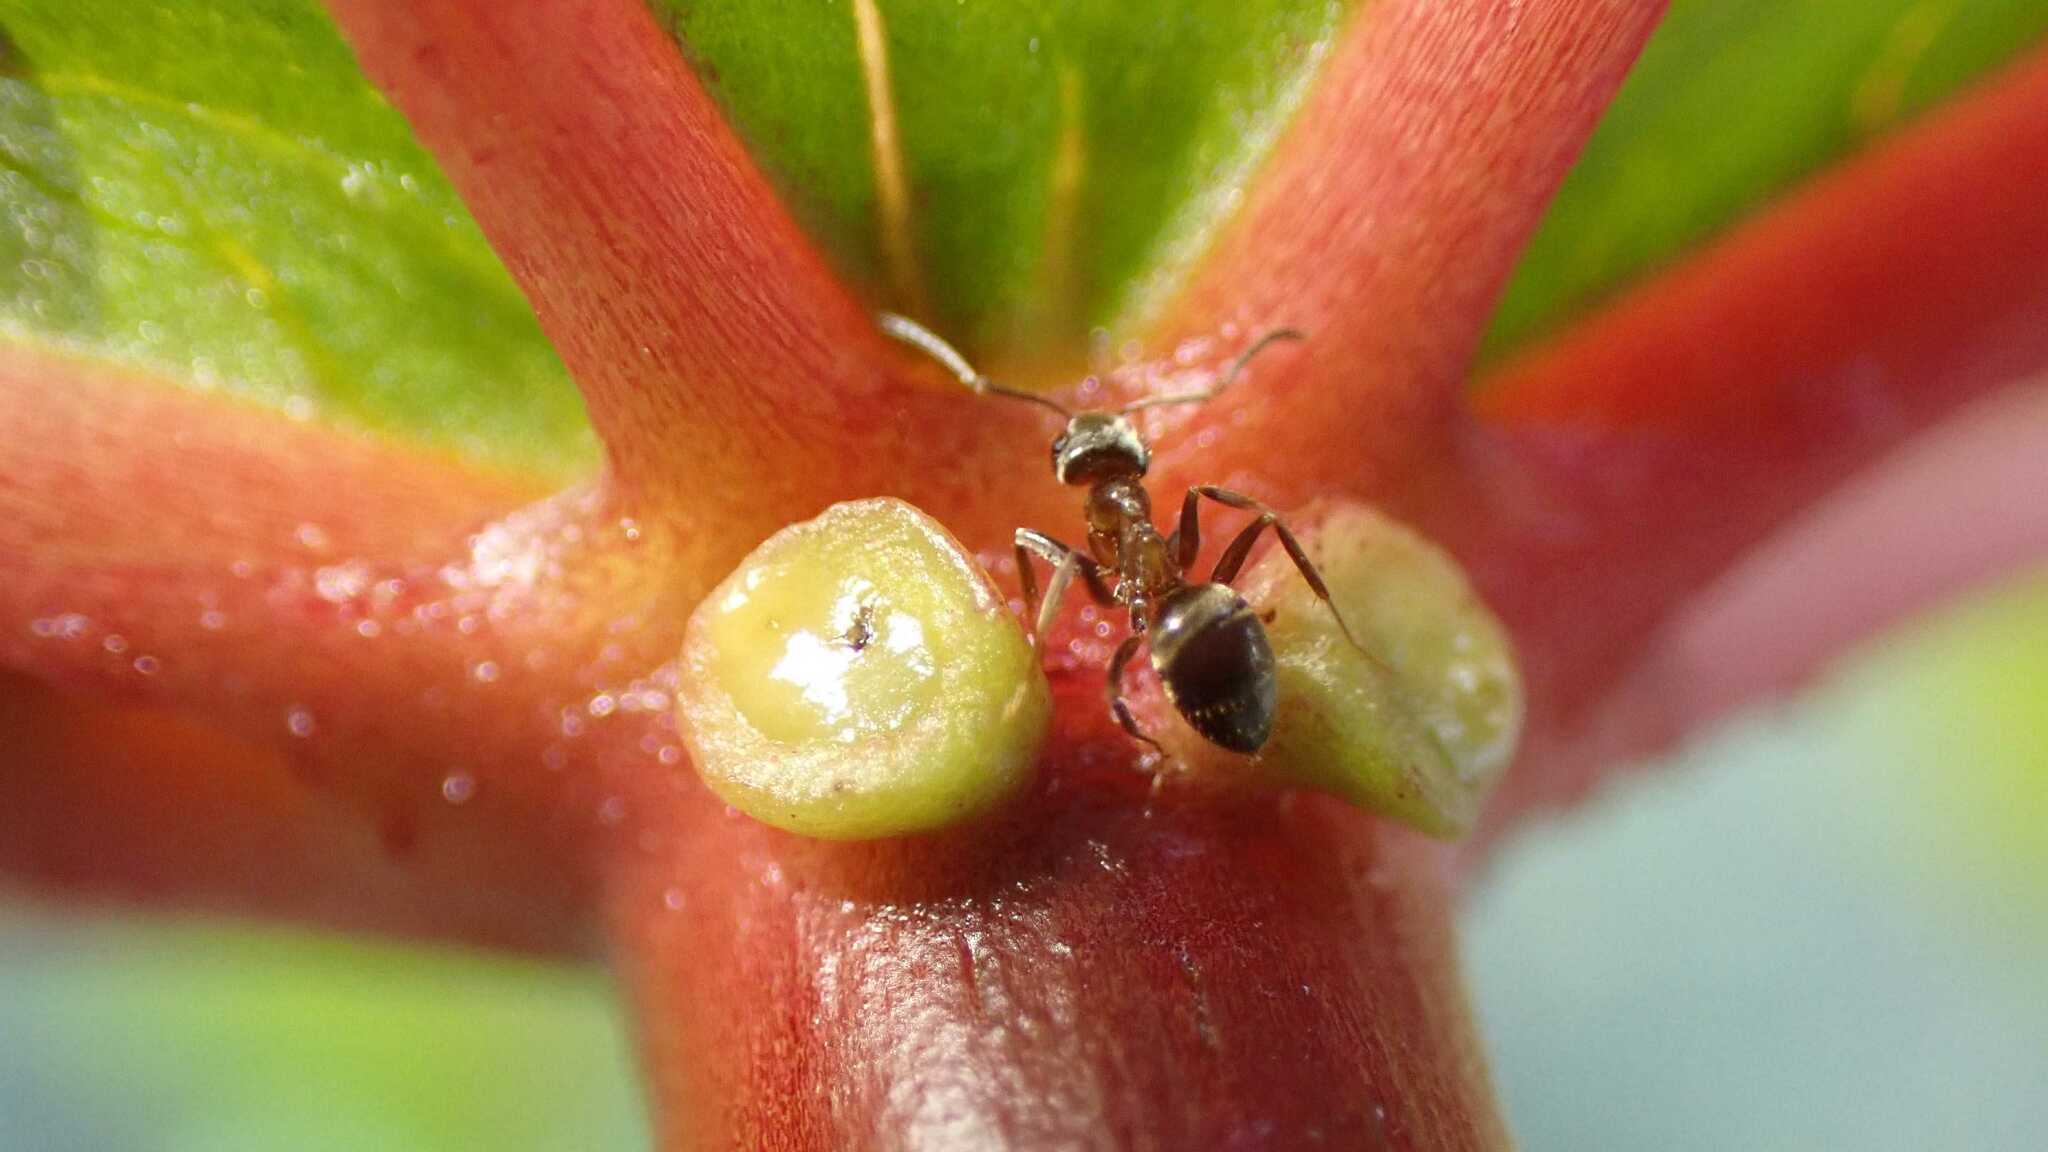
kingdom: Animalia
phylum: Arthropoda
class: Insecta
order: Hymenoptera
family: Formicidae
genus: Lasius
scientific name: Lasius
